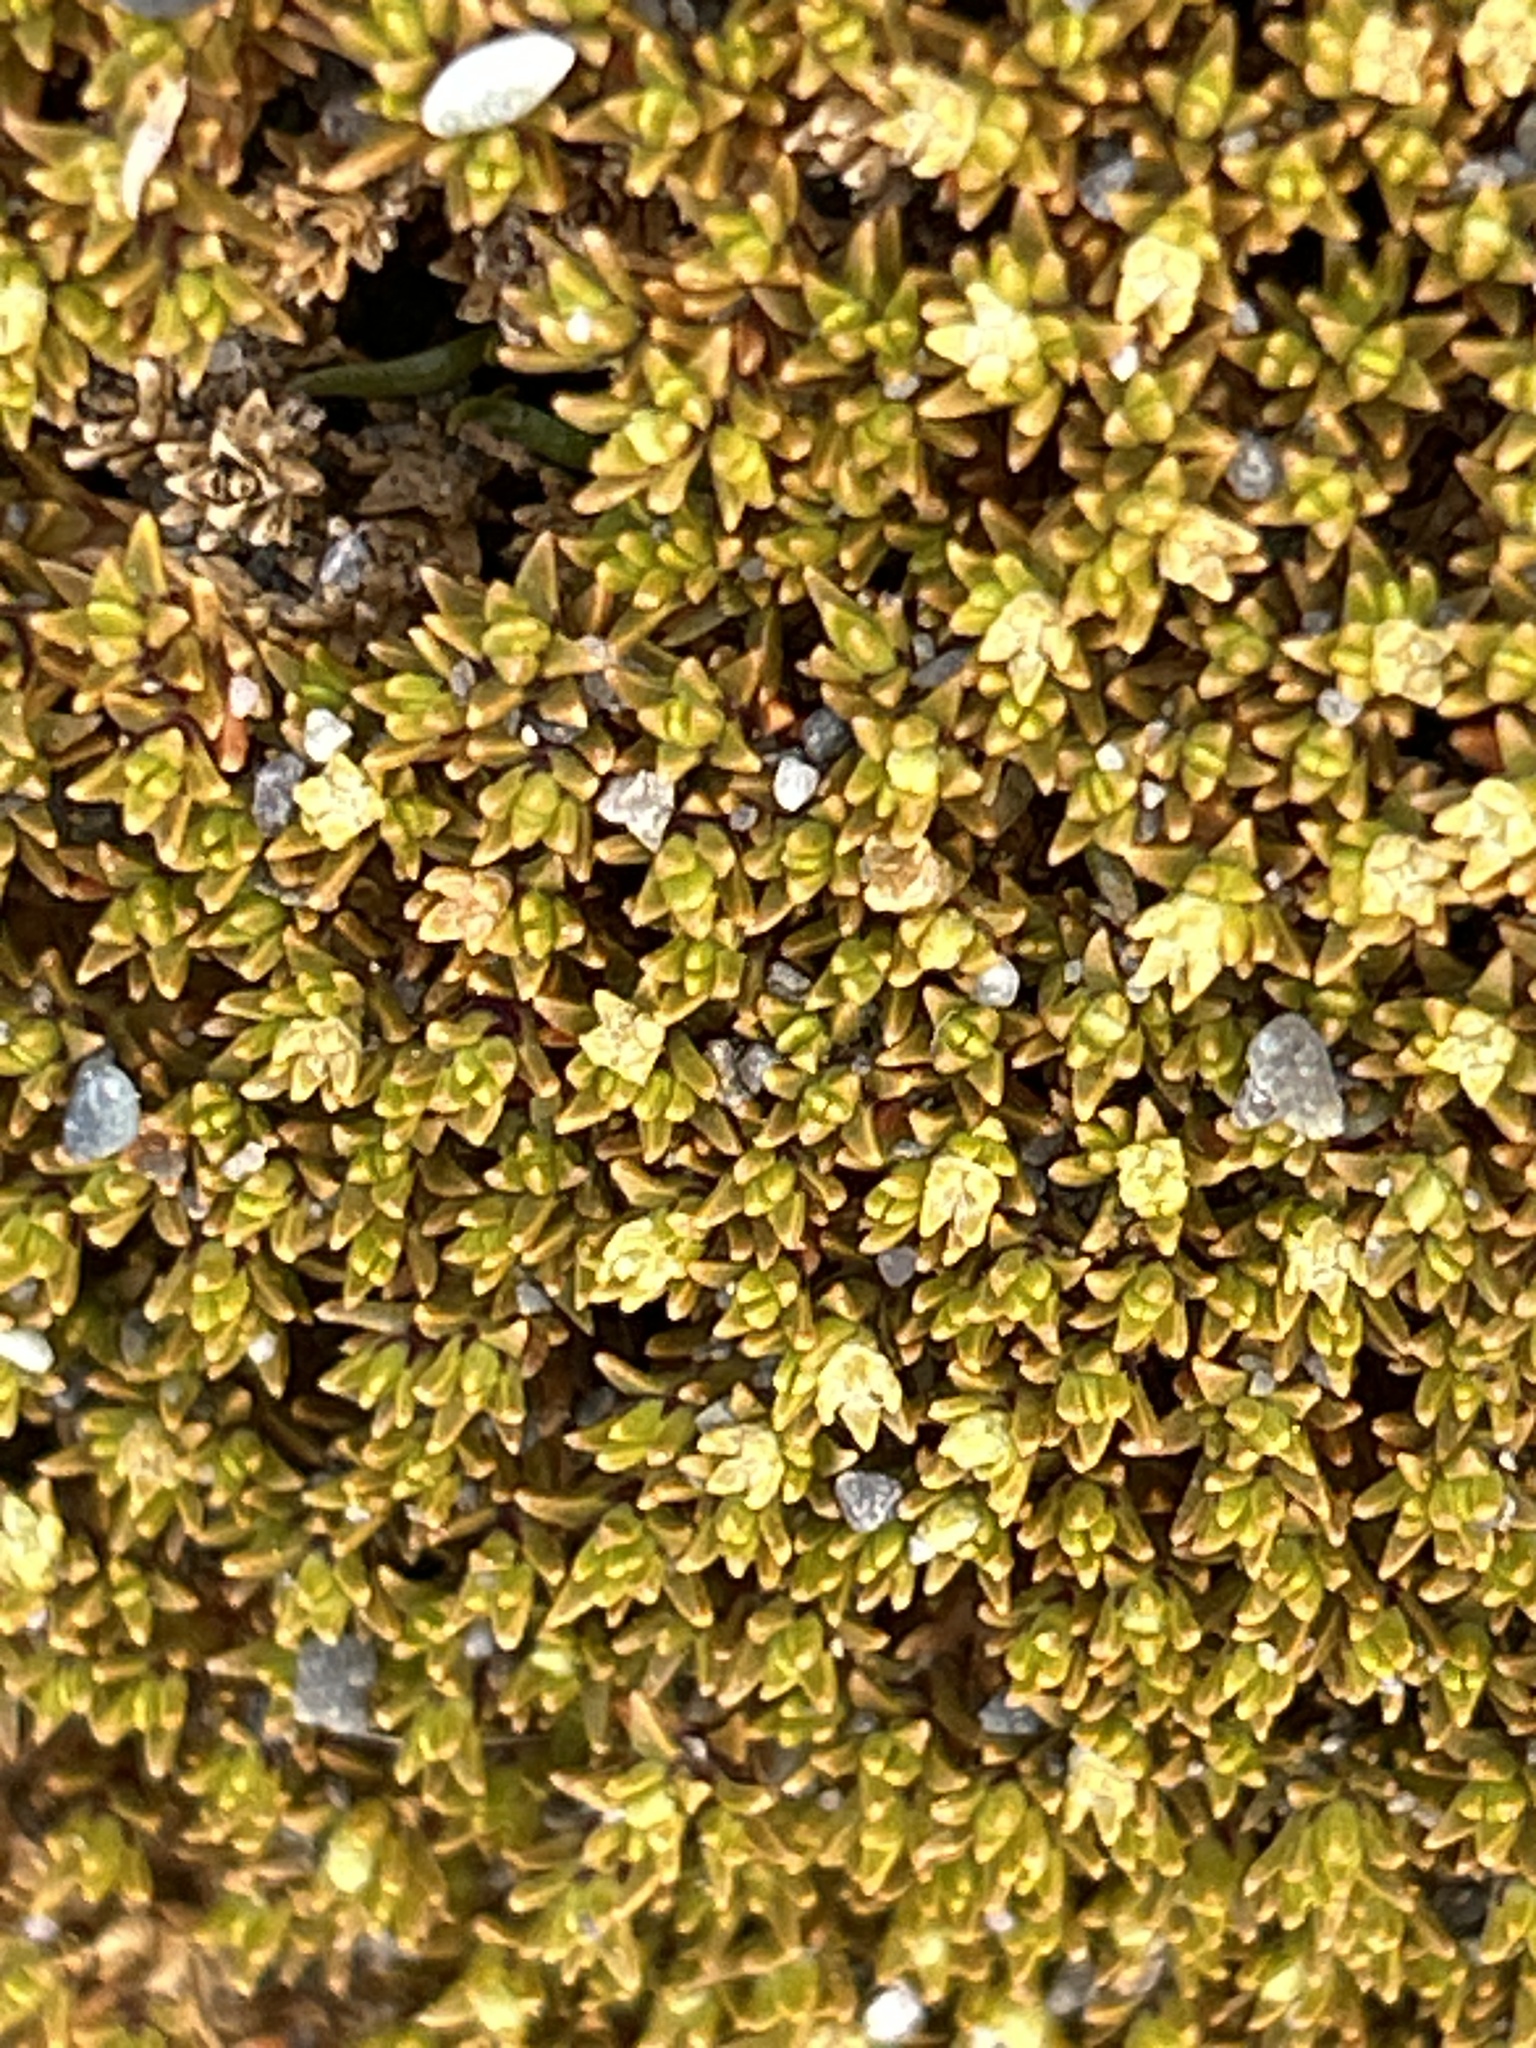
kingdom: Plantae
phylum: Tracheophyta
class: Magnoliopsida
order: Caryophyllales
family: Caryophyllaceae
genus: Scleranthus
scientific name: Scleranthus uniflorus
